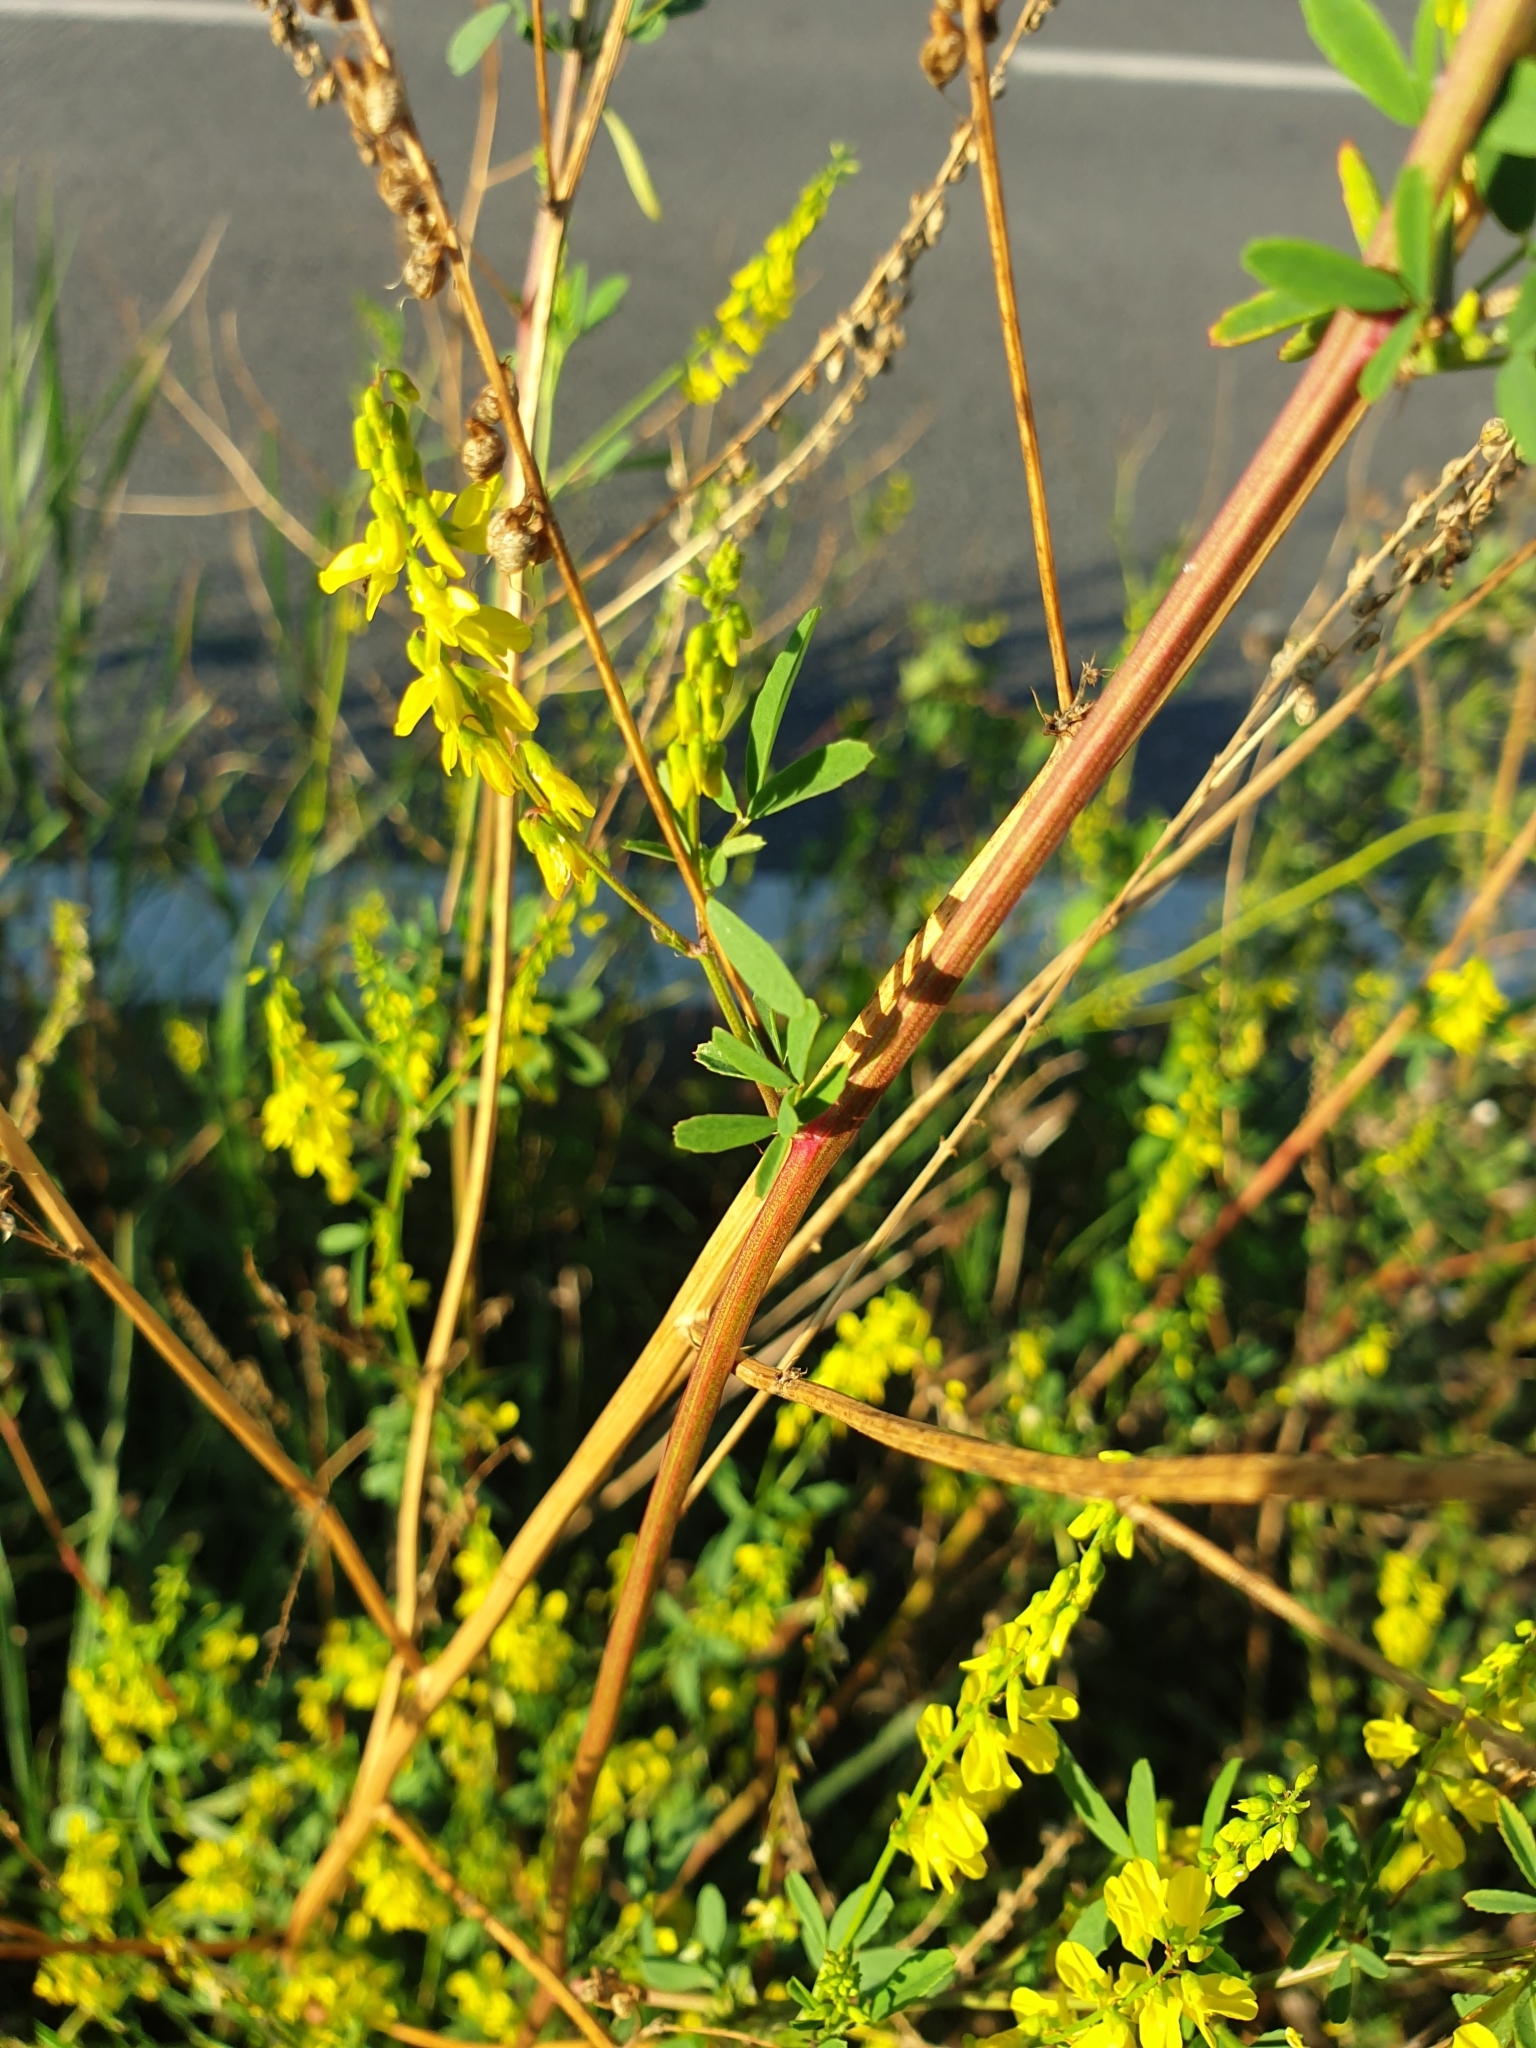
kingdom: Plantae
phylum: Tracheophyta
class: Magnoliopsida
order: Fabales
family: Fabaceae
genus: Melilotus
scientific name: Melilotus officinalis
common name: Sweetclover
